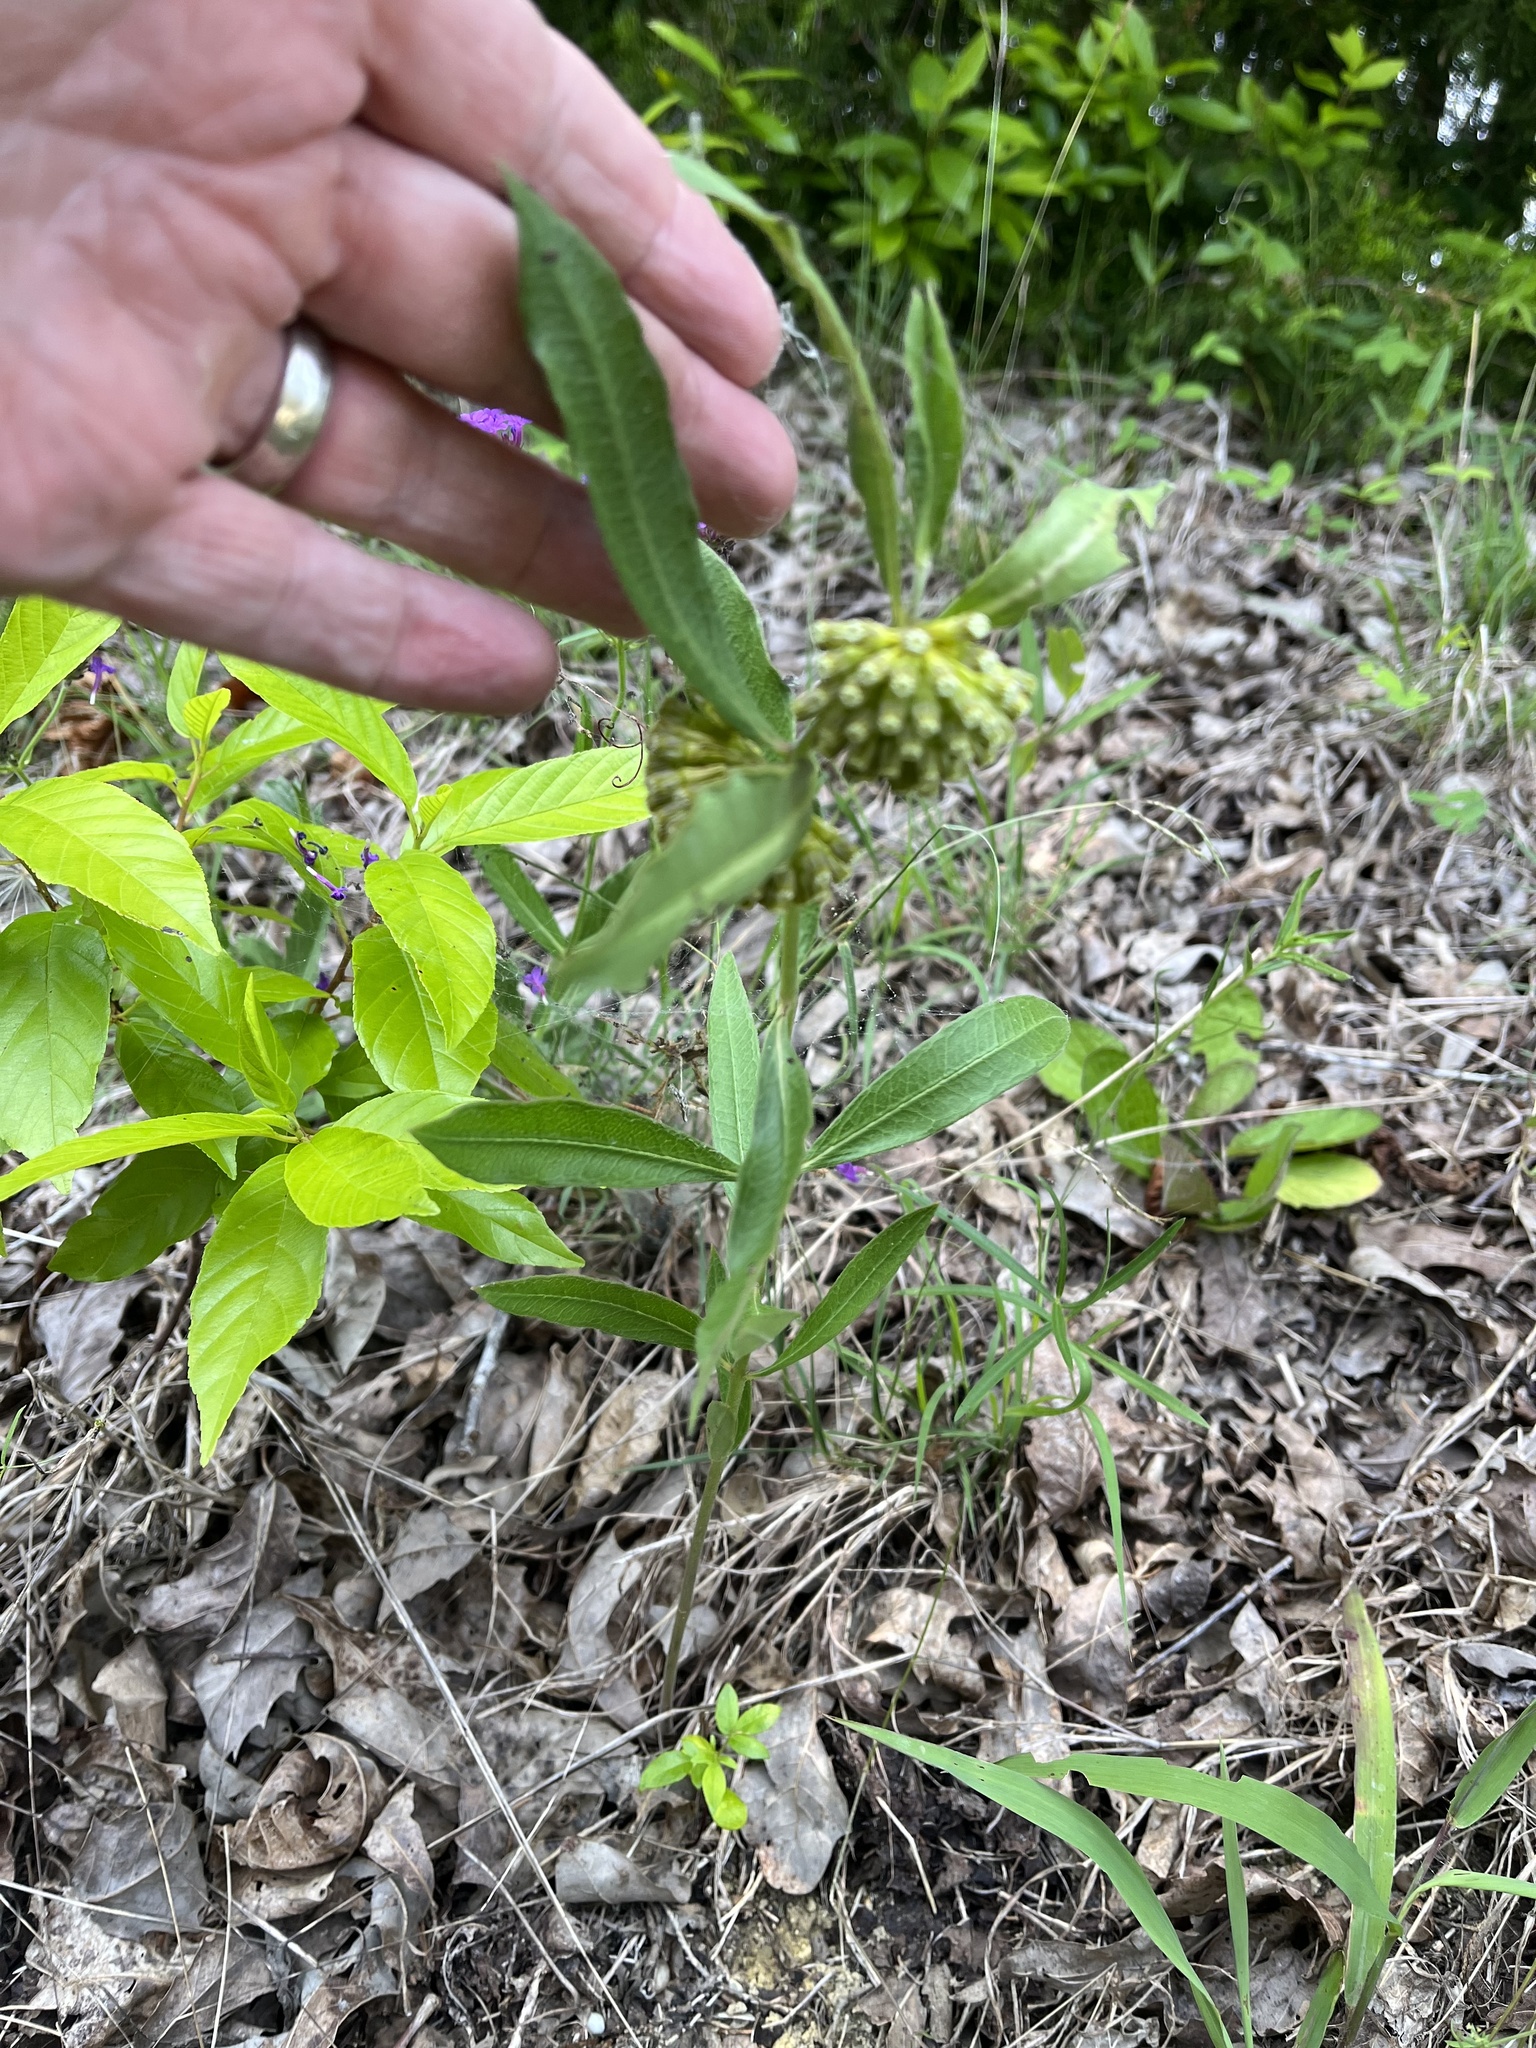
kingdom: Plantae
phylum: Tracheophyta
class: Magnoliopsida
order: Gentianales
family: Apocynaceae
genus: Asclepias
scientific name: Asclepias viridiflora
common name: Green comet milkweed
